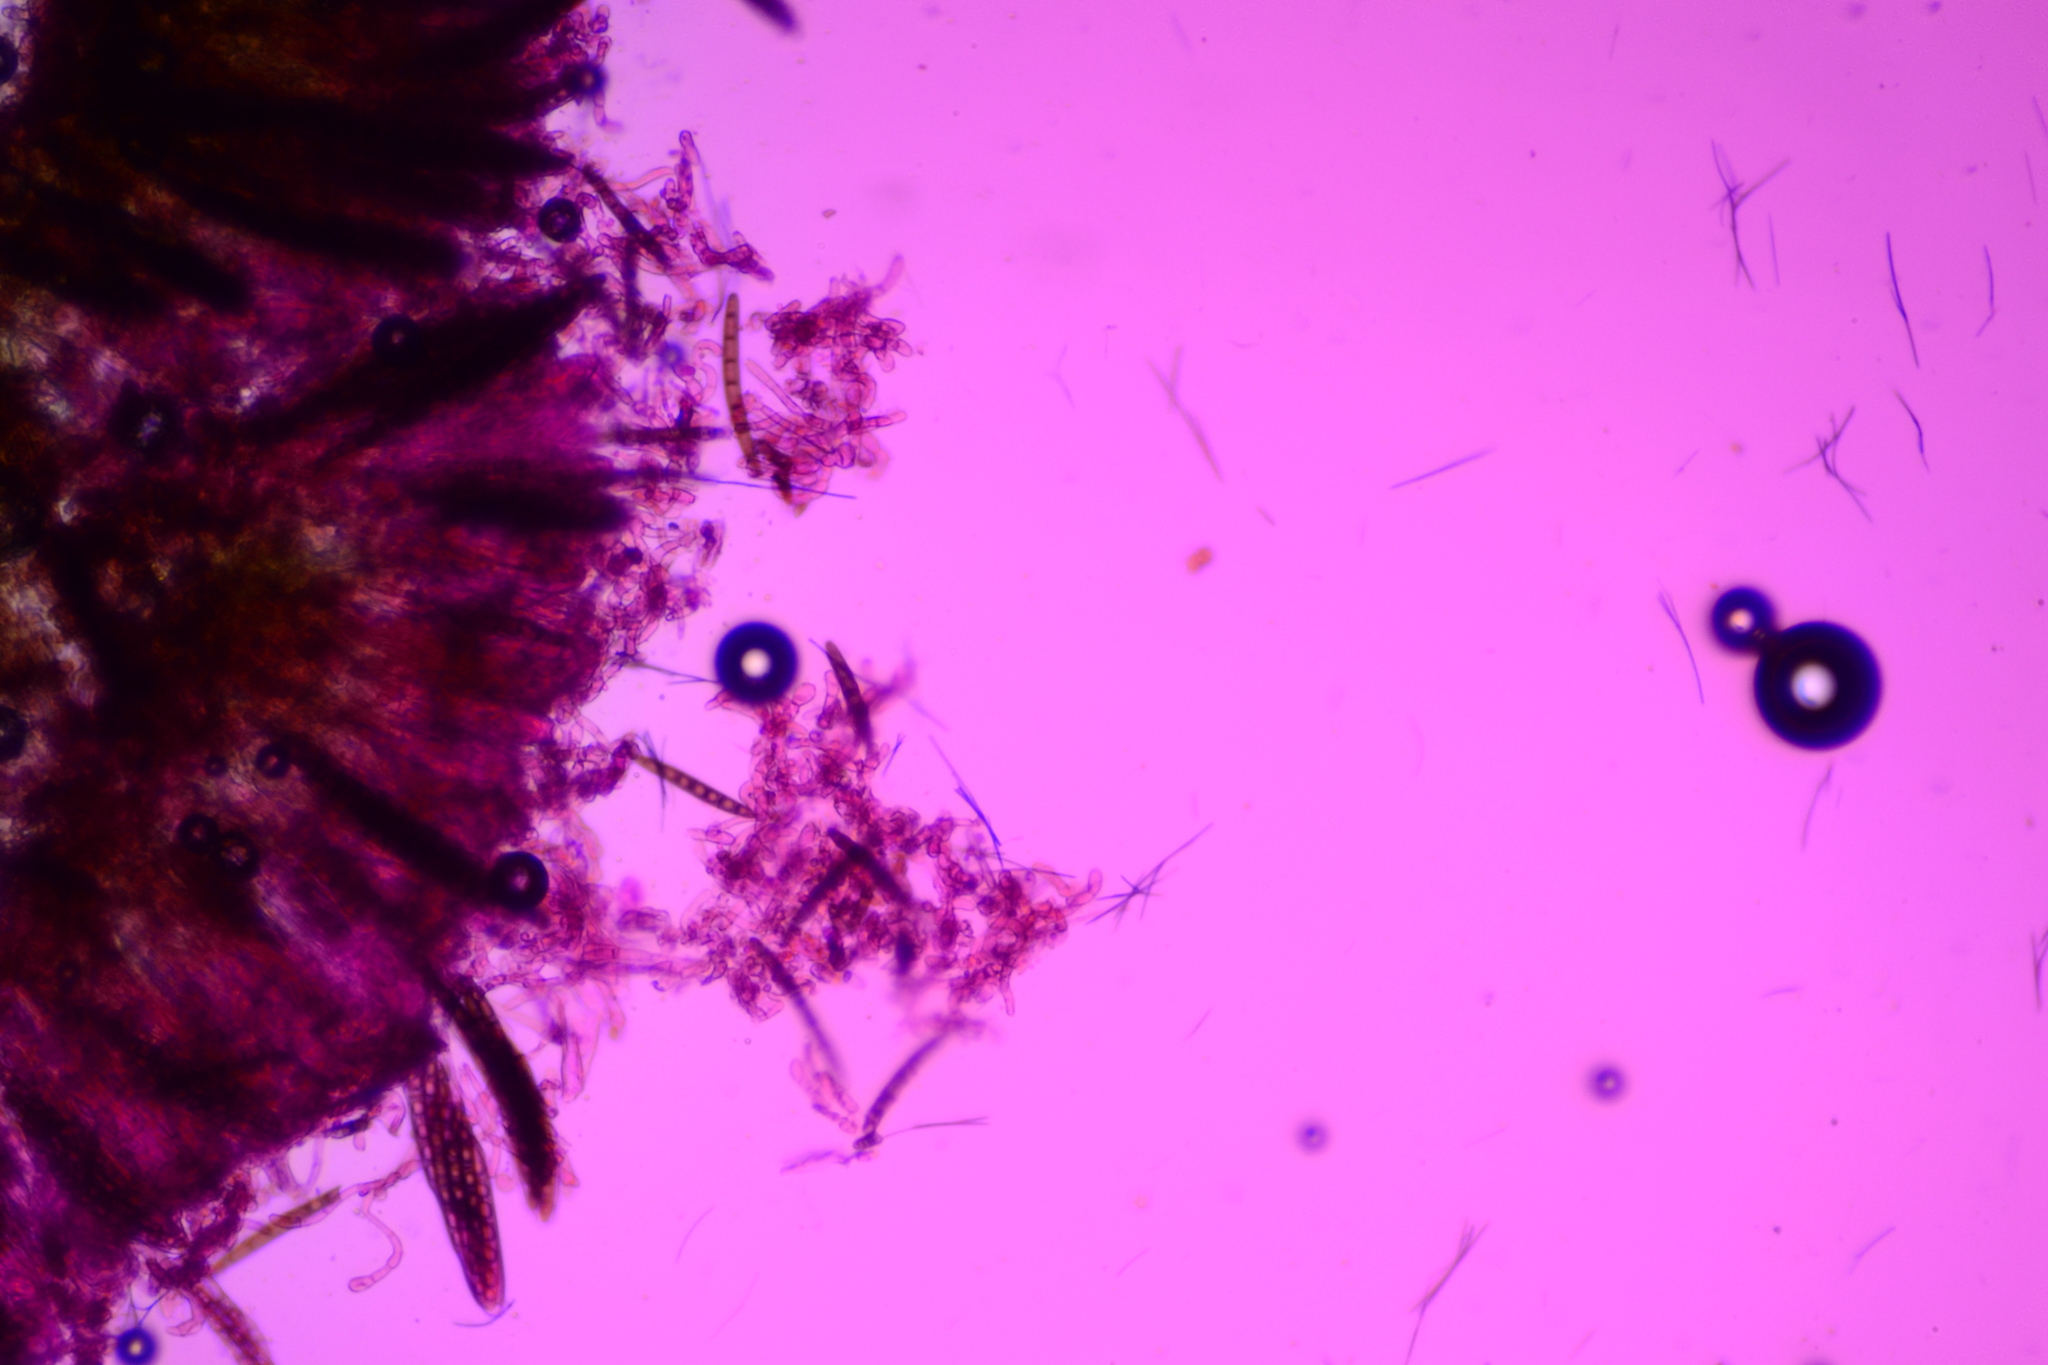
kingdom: Fungi
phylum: Ascomycota
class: Geoglossomycetes
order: Geoglossales
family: Geoglossaceae
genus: Geoglossum
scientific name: Geoglossum simile
